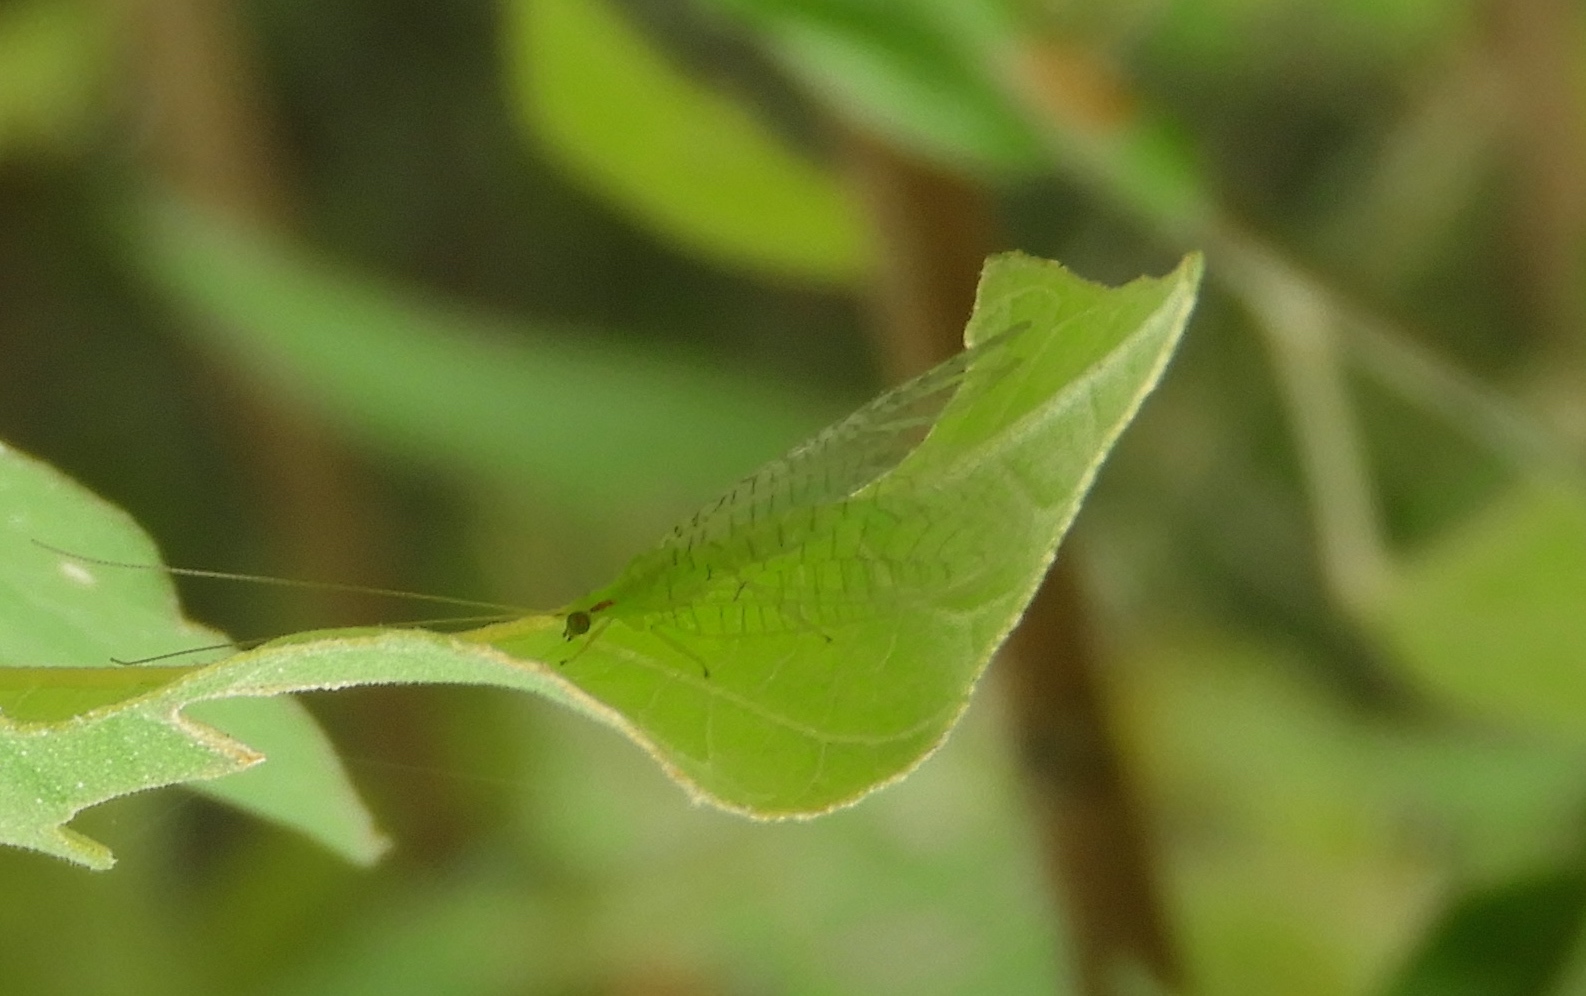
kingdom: Animalia
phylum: Arthropoda
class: Insecta
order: Neuroptera
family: Chrysopidae
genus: Ceraeochrysa
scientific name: Ceraeochrysa
